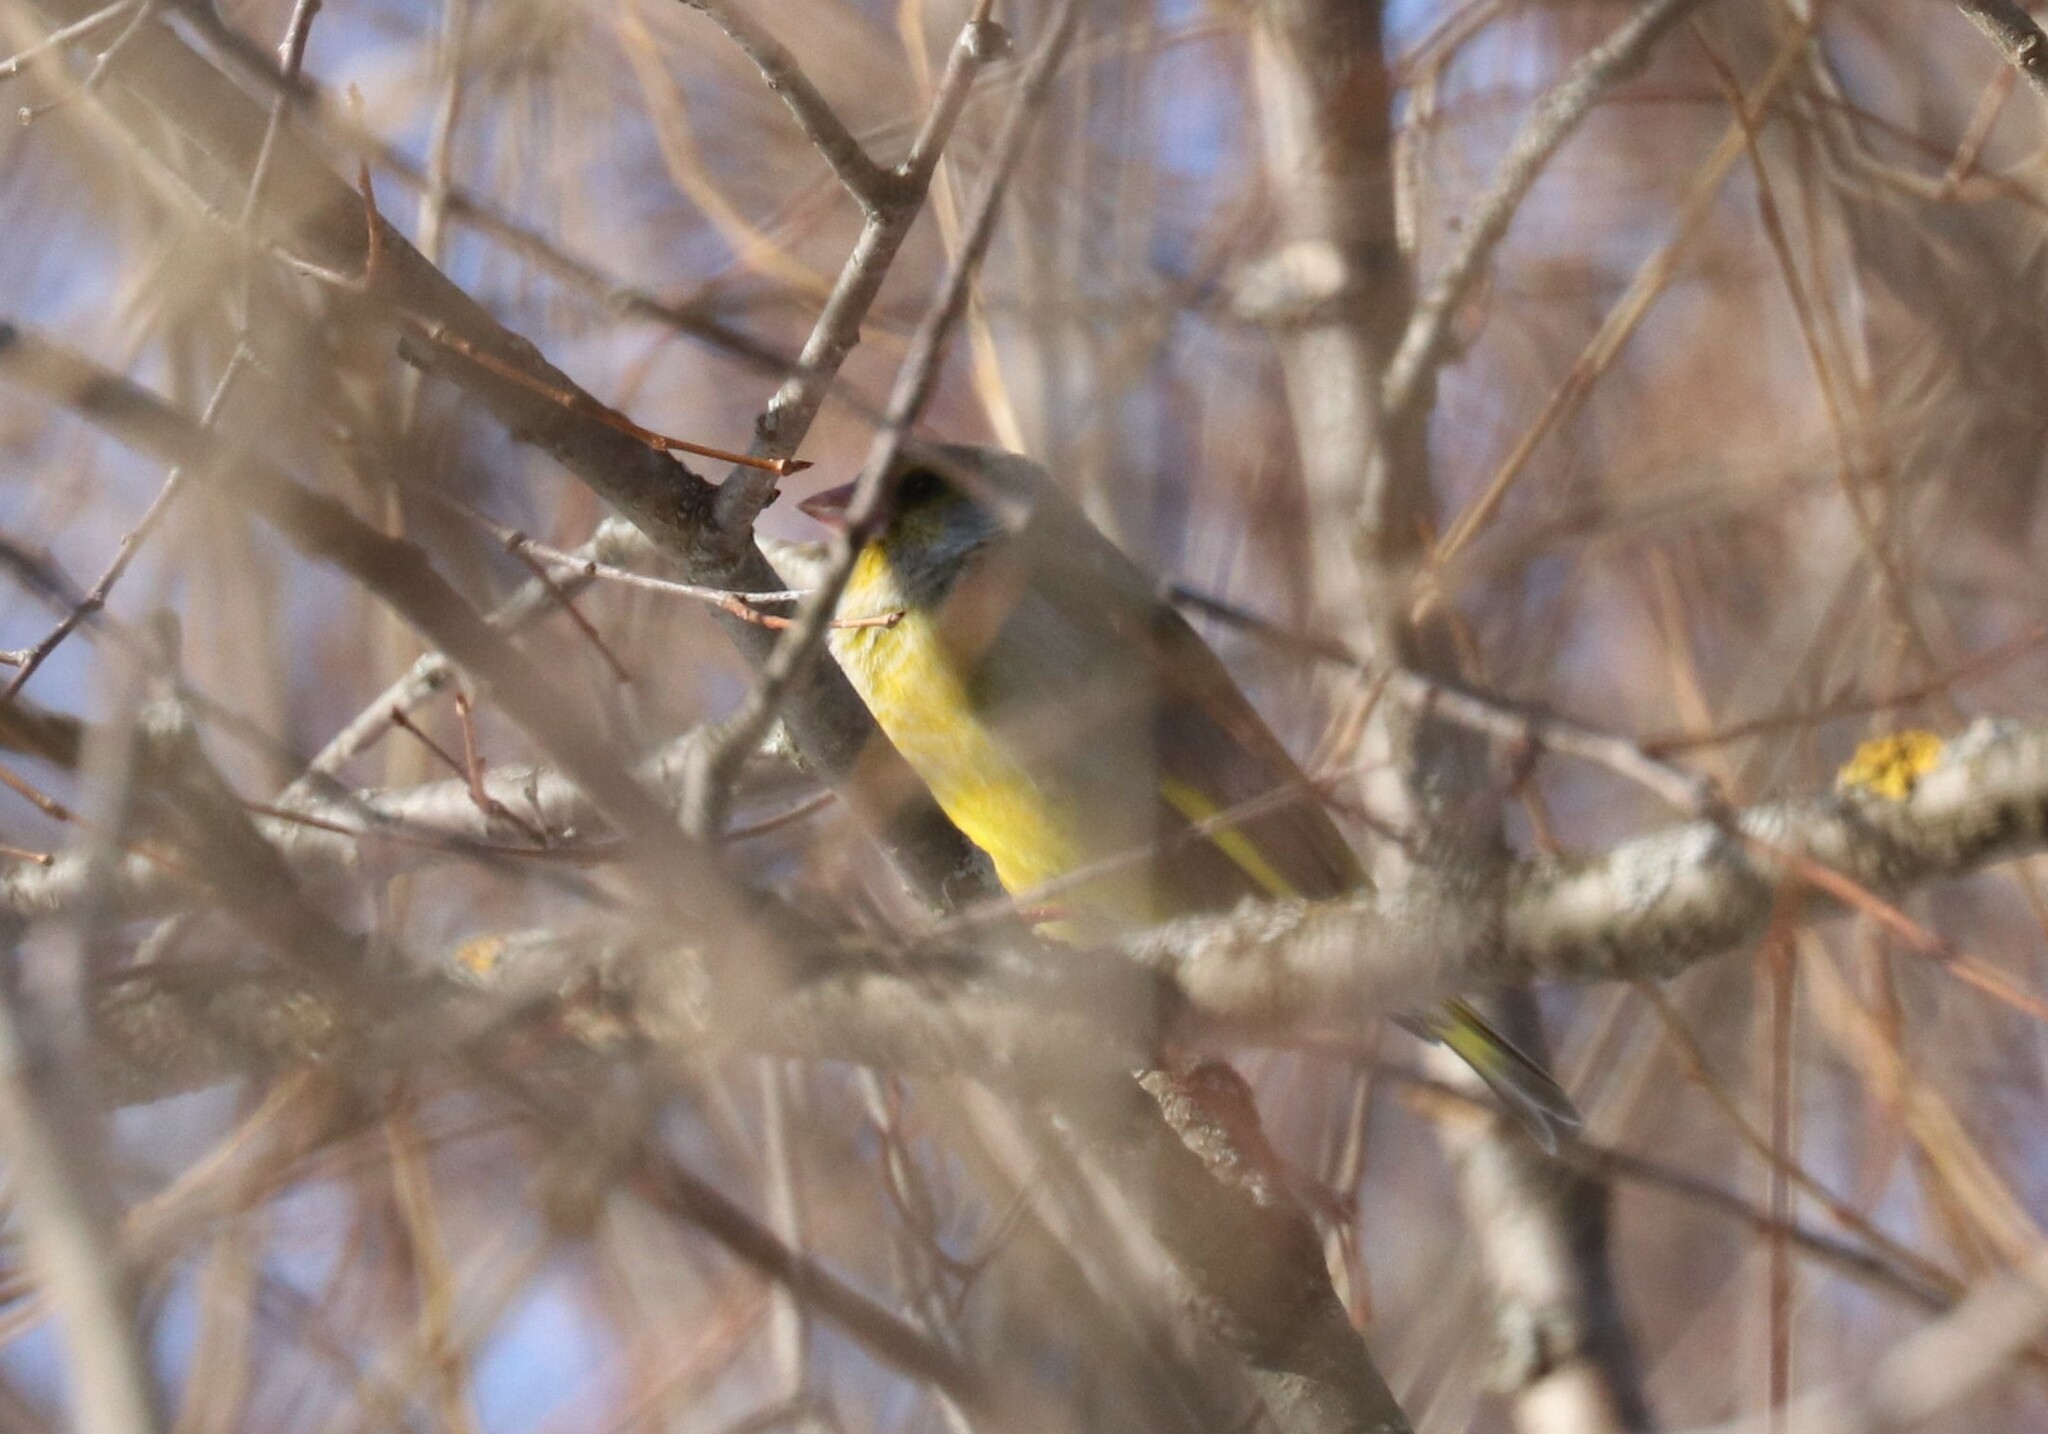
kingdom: Plantae
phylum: Tracheophyta
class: Liliopsida
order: Poales
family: Poaceae
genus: Chloris
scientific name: Chloris chloris
